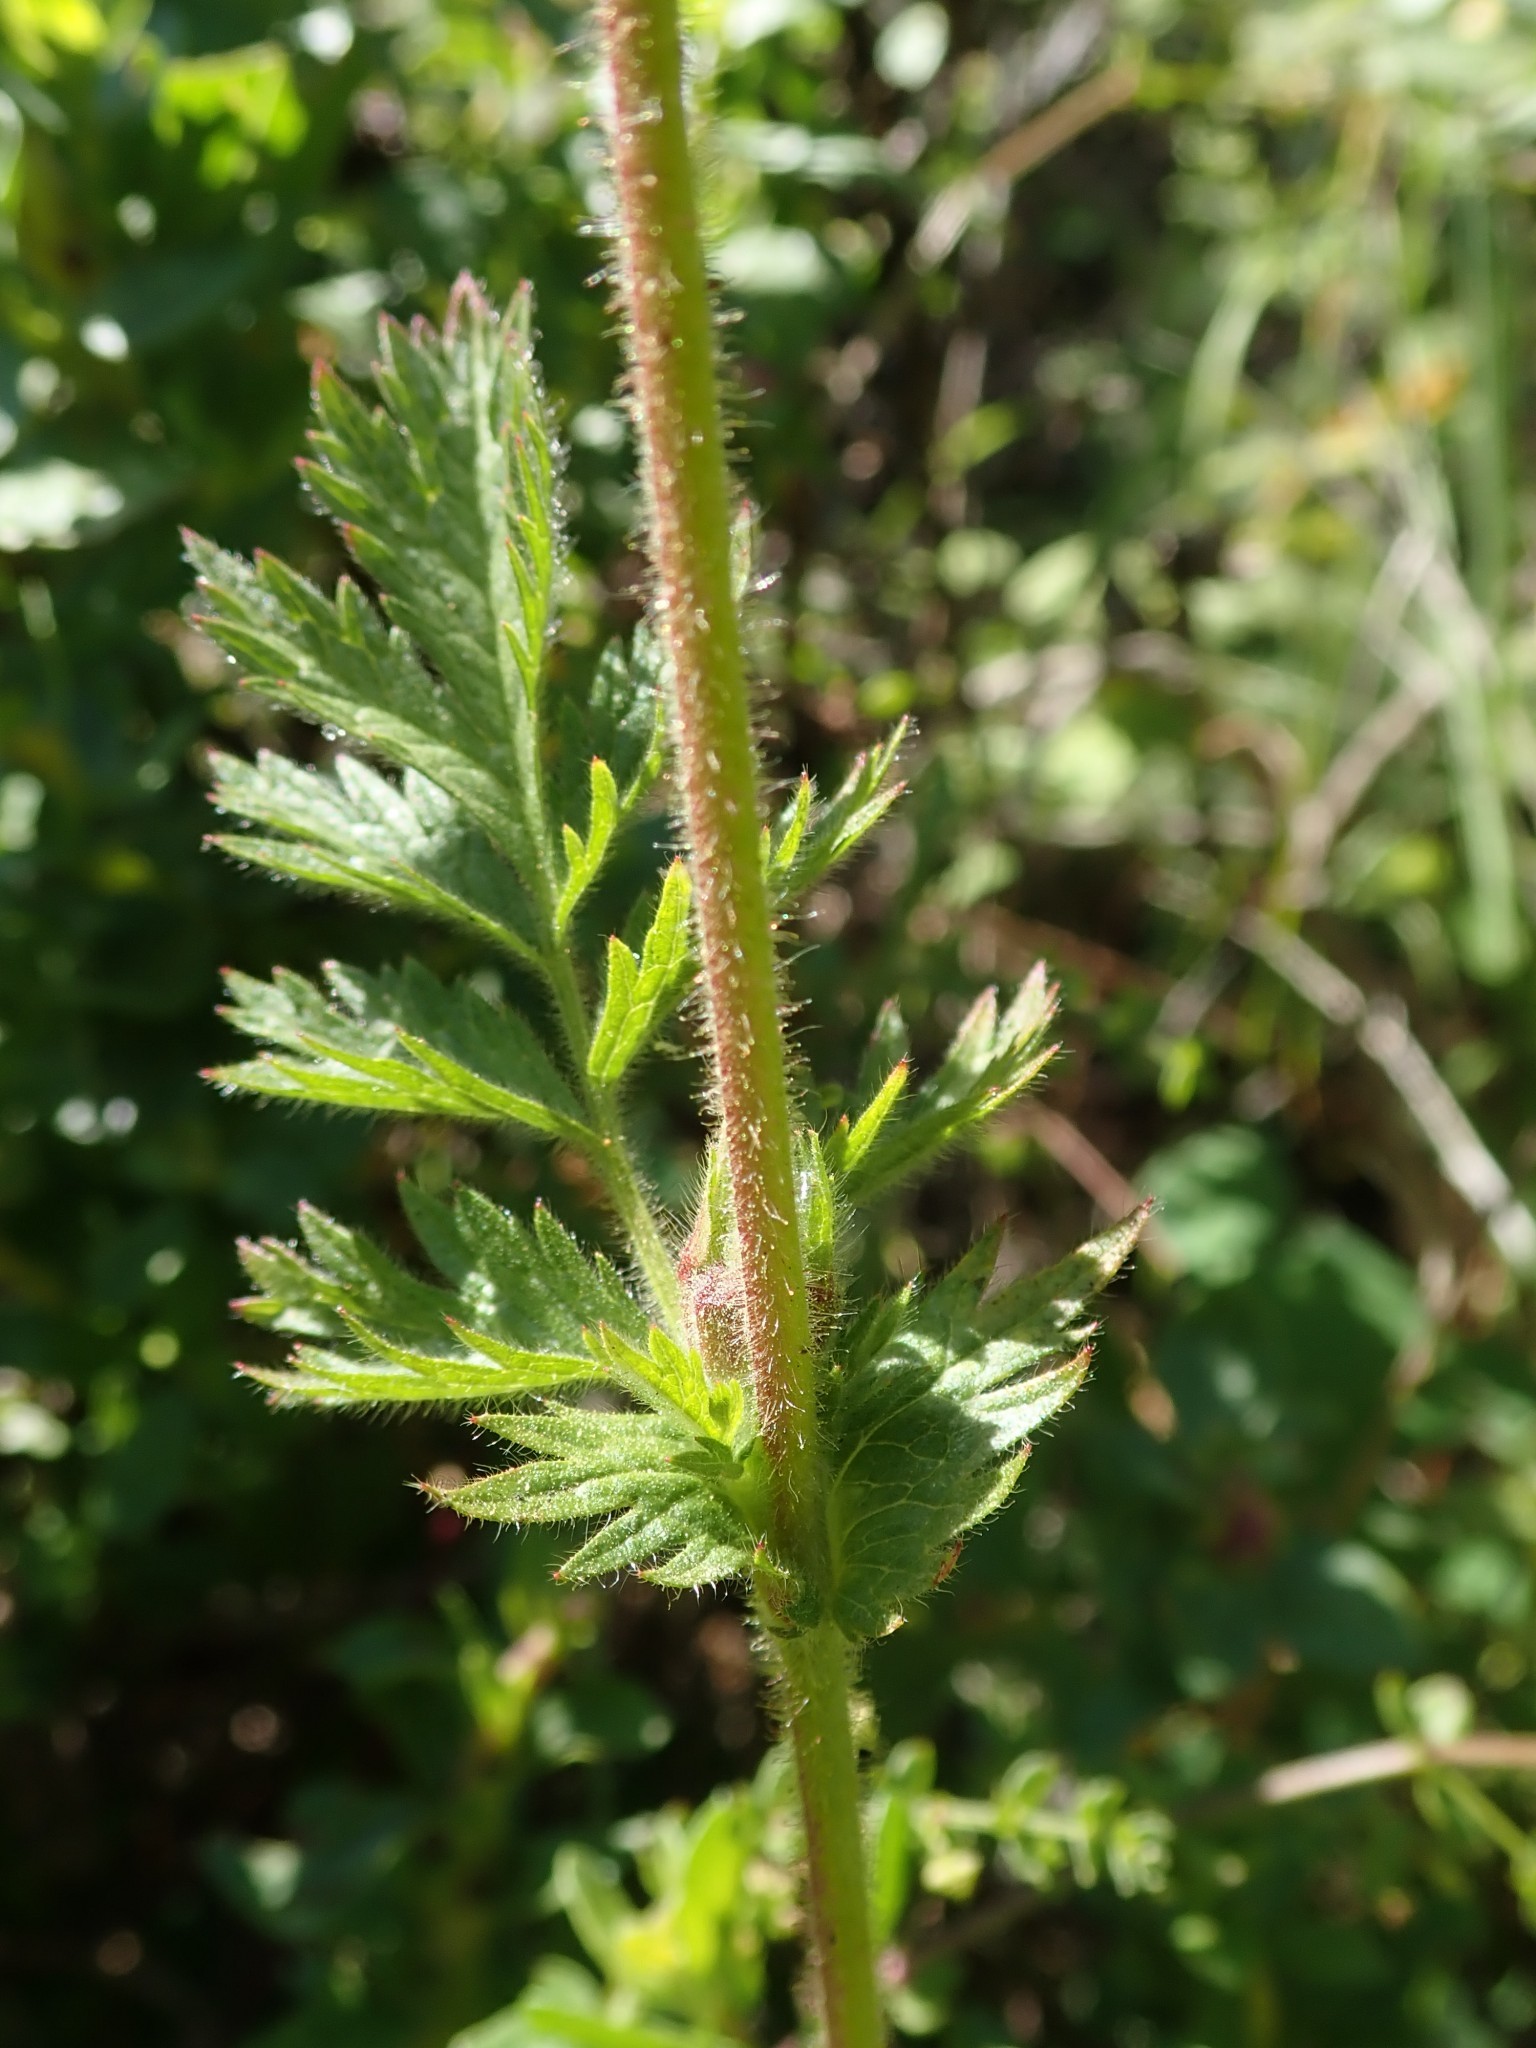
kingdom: Plantae
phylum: Tracheophyta
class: Magnoliopsida
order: Rosales
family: Rosaceae
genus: Potentilla
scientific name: Potentilla californica
